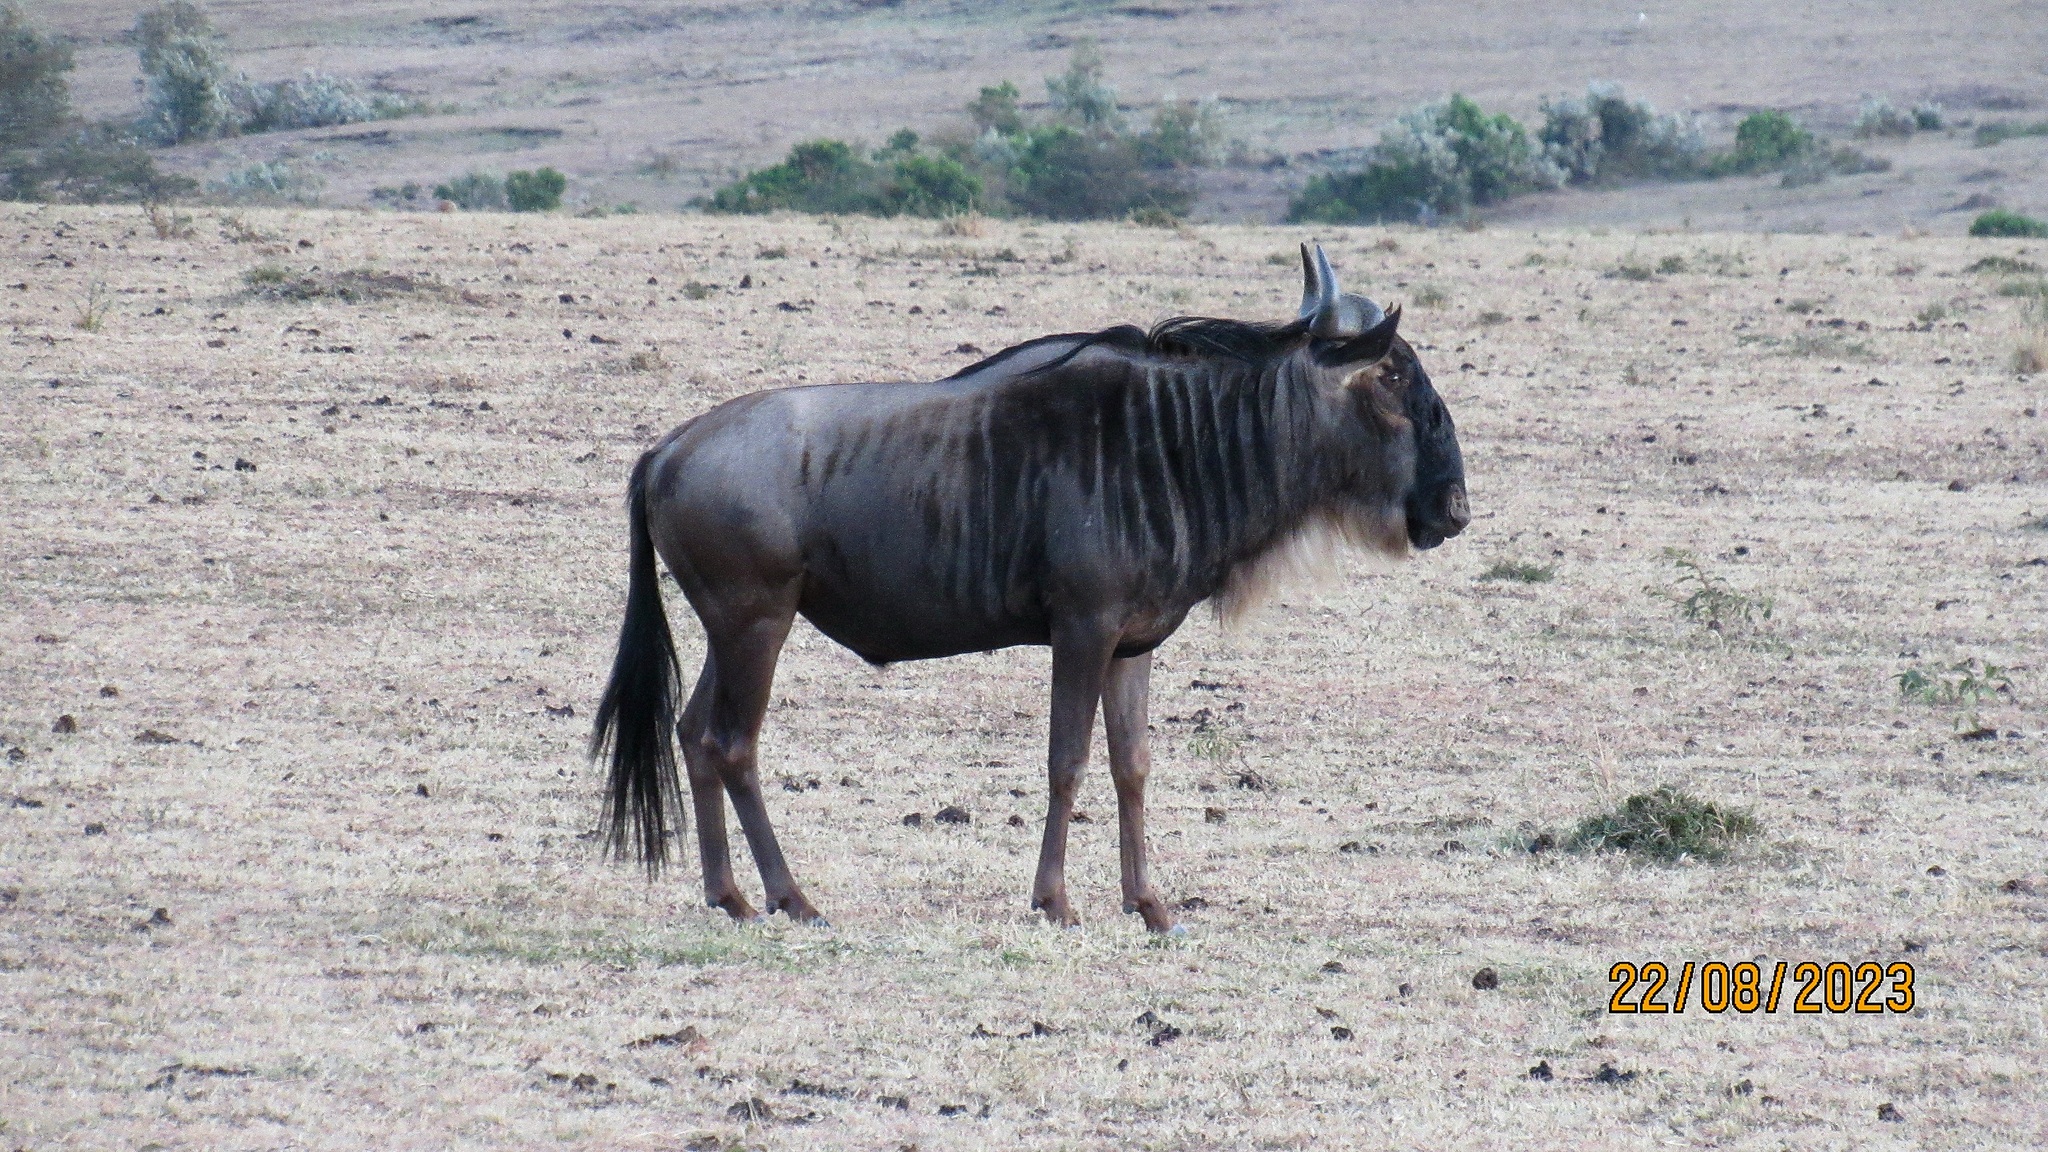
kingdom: Animalia
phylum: Chordata
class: Mammalia
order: Artiodactyla
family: Bovidae
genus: Connochaetes
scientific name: Connochaetes taurinus
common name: Blue wildebeest
